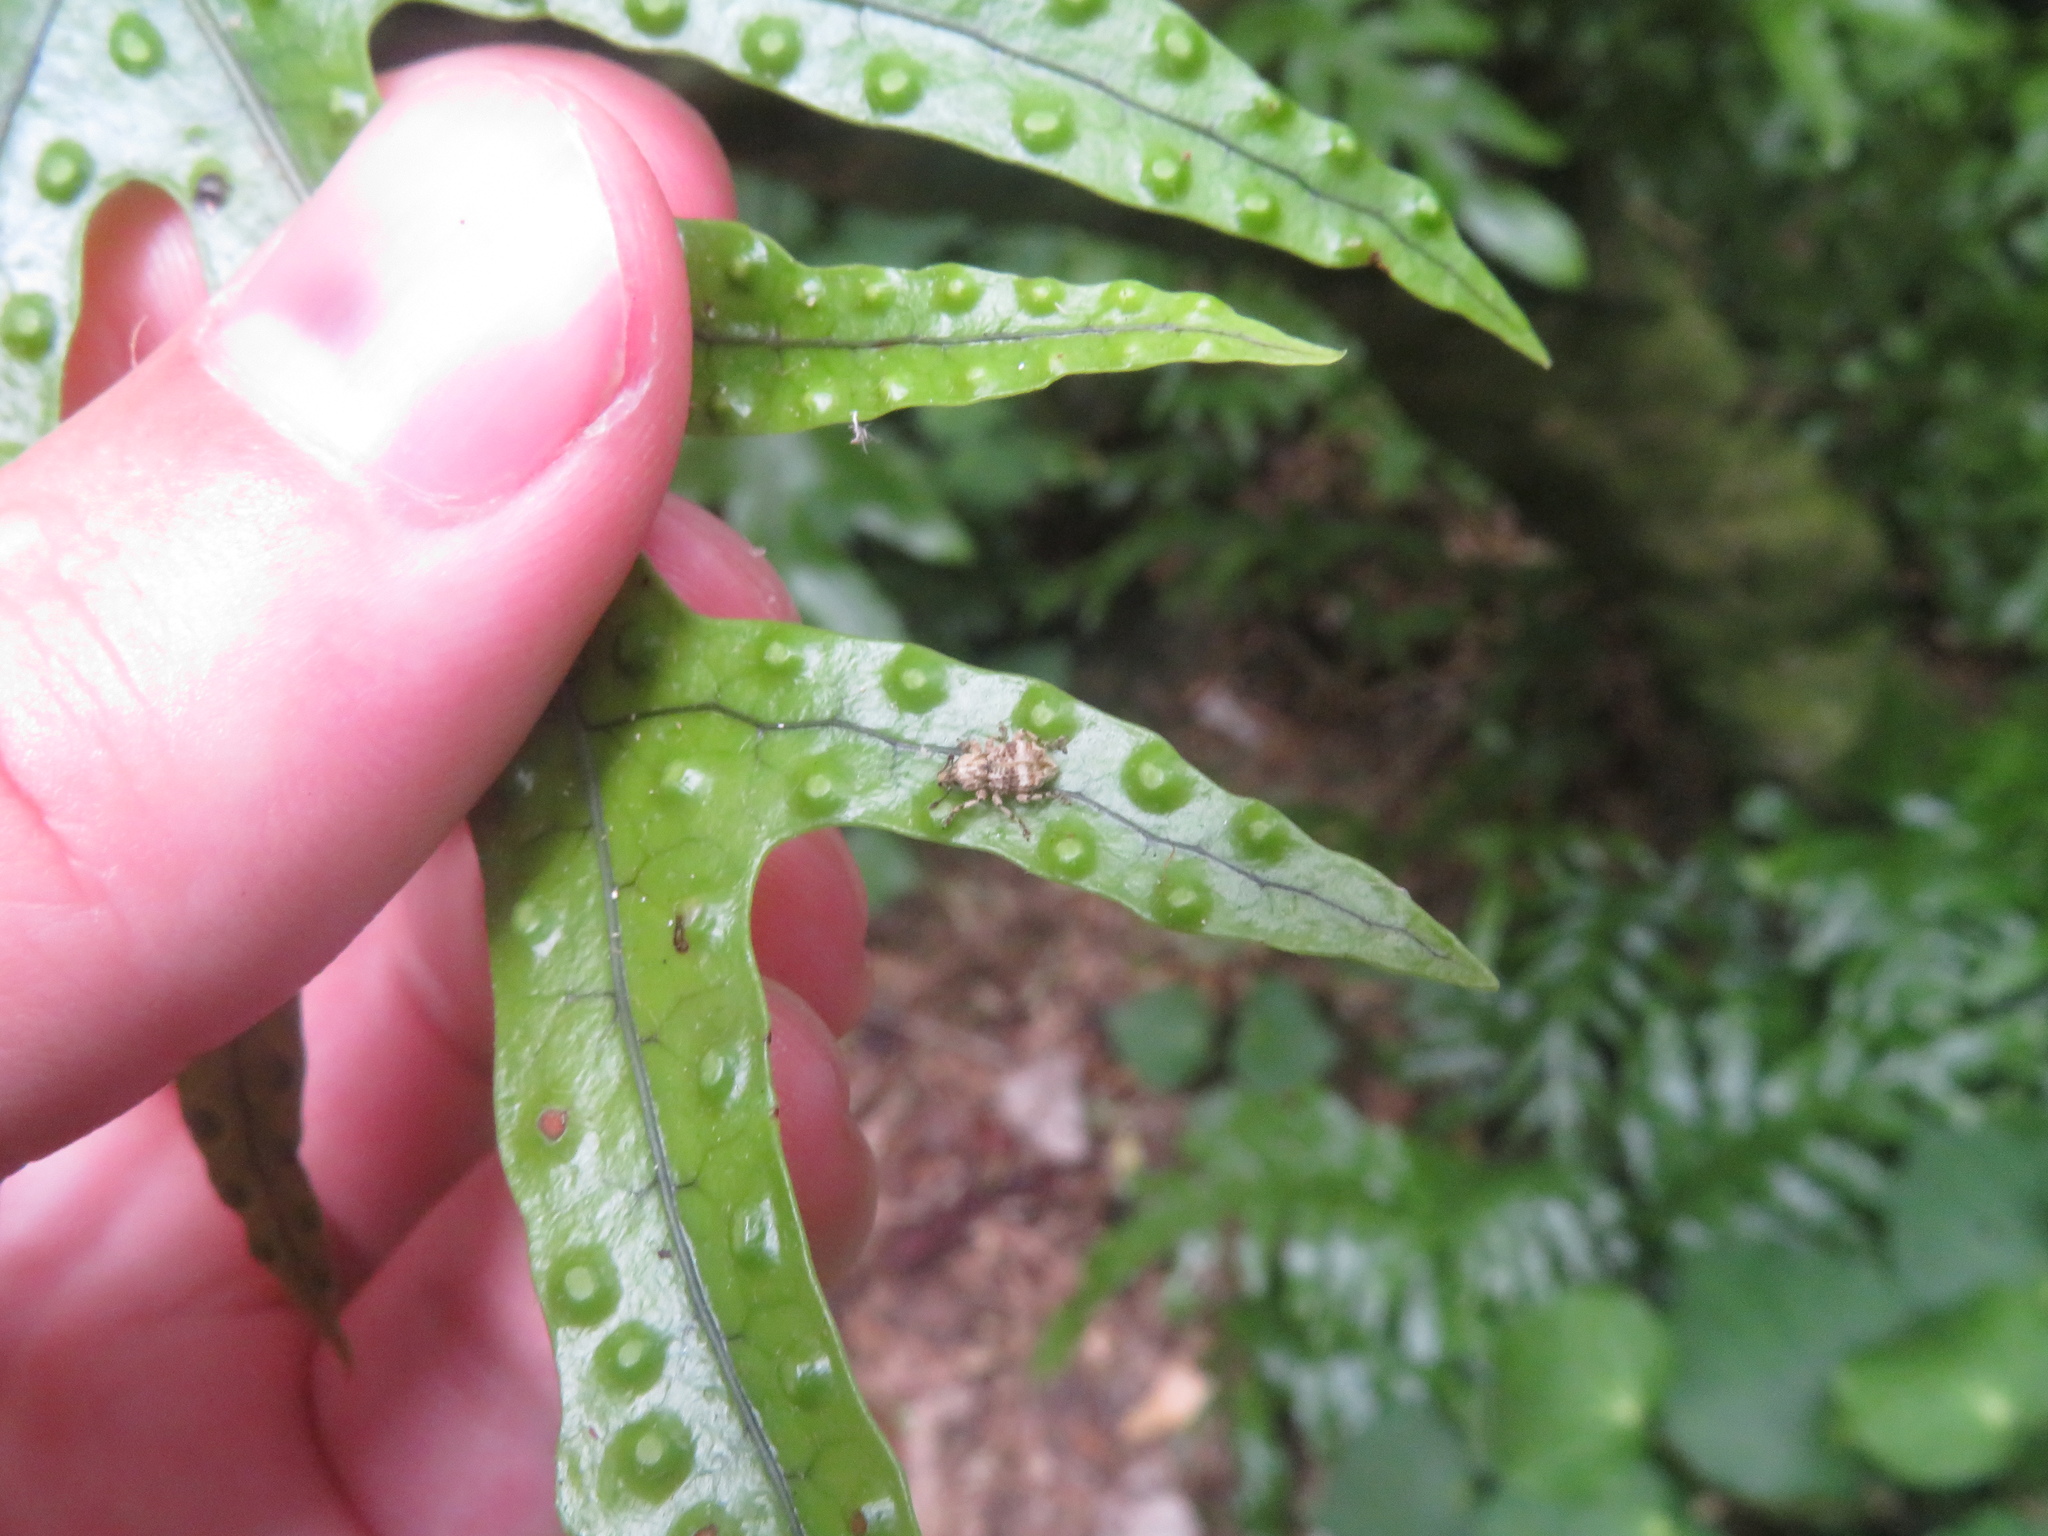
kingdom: Animalia
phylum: Arthropoda
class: Insecta
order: Coleoptera
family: Curculionidae
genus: Brachyolus
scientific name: Brachyolus punctatus
